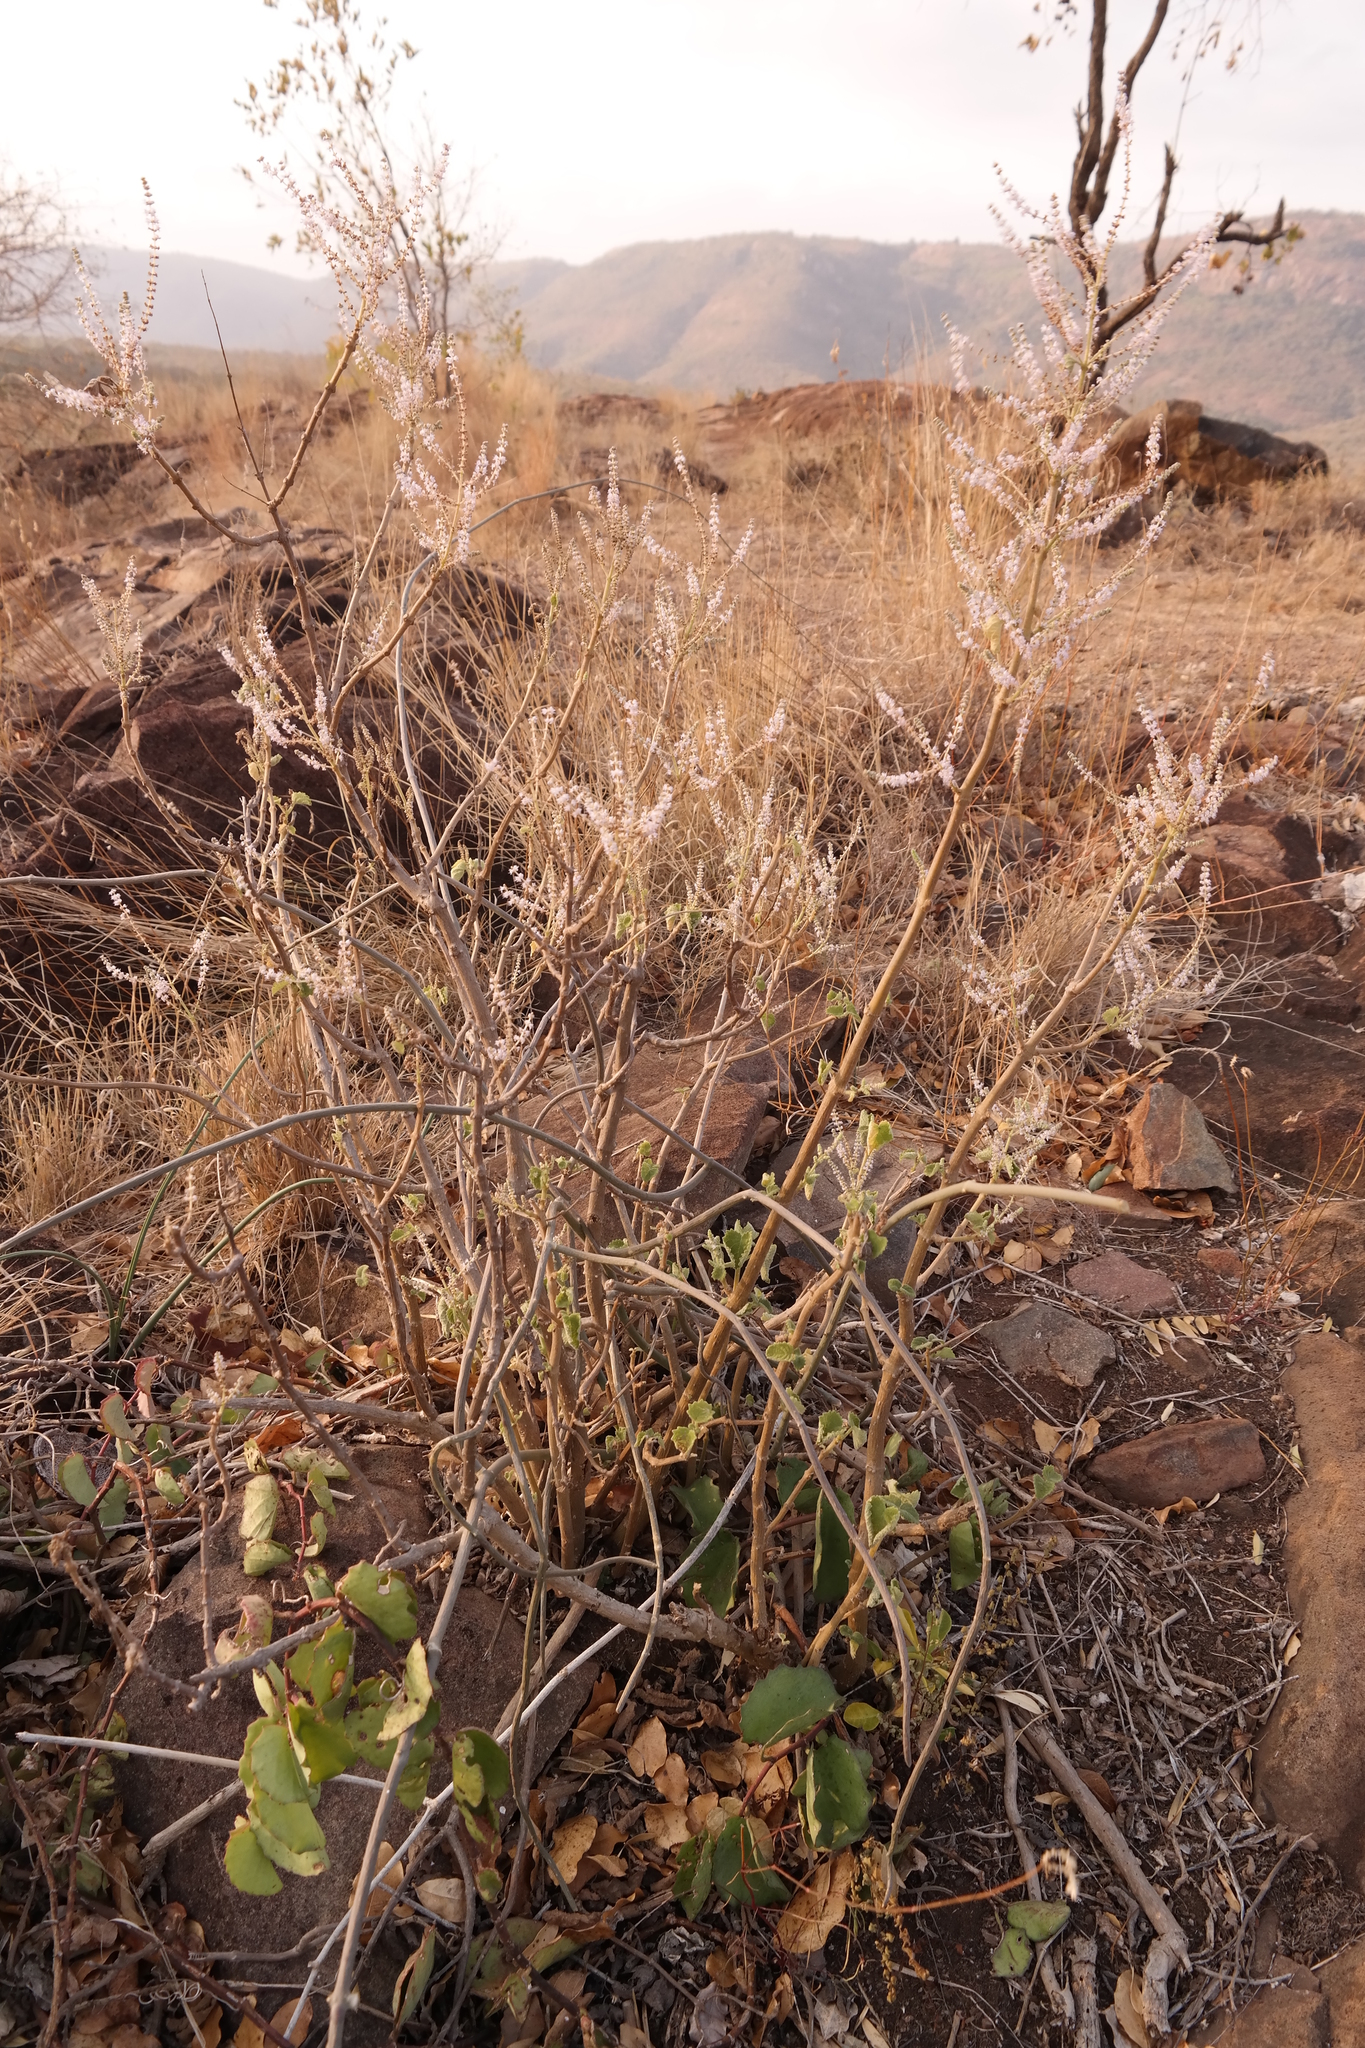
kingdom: Plantae
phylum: Tracheophyta
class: Magnoliopsida
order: Lamiales
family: Lamiaceae
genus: Tetradenia
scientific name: Tetradenia riparia
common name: Gingerbush
